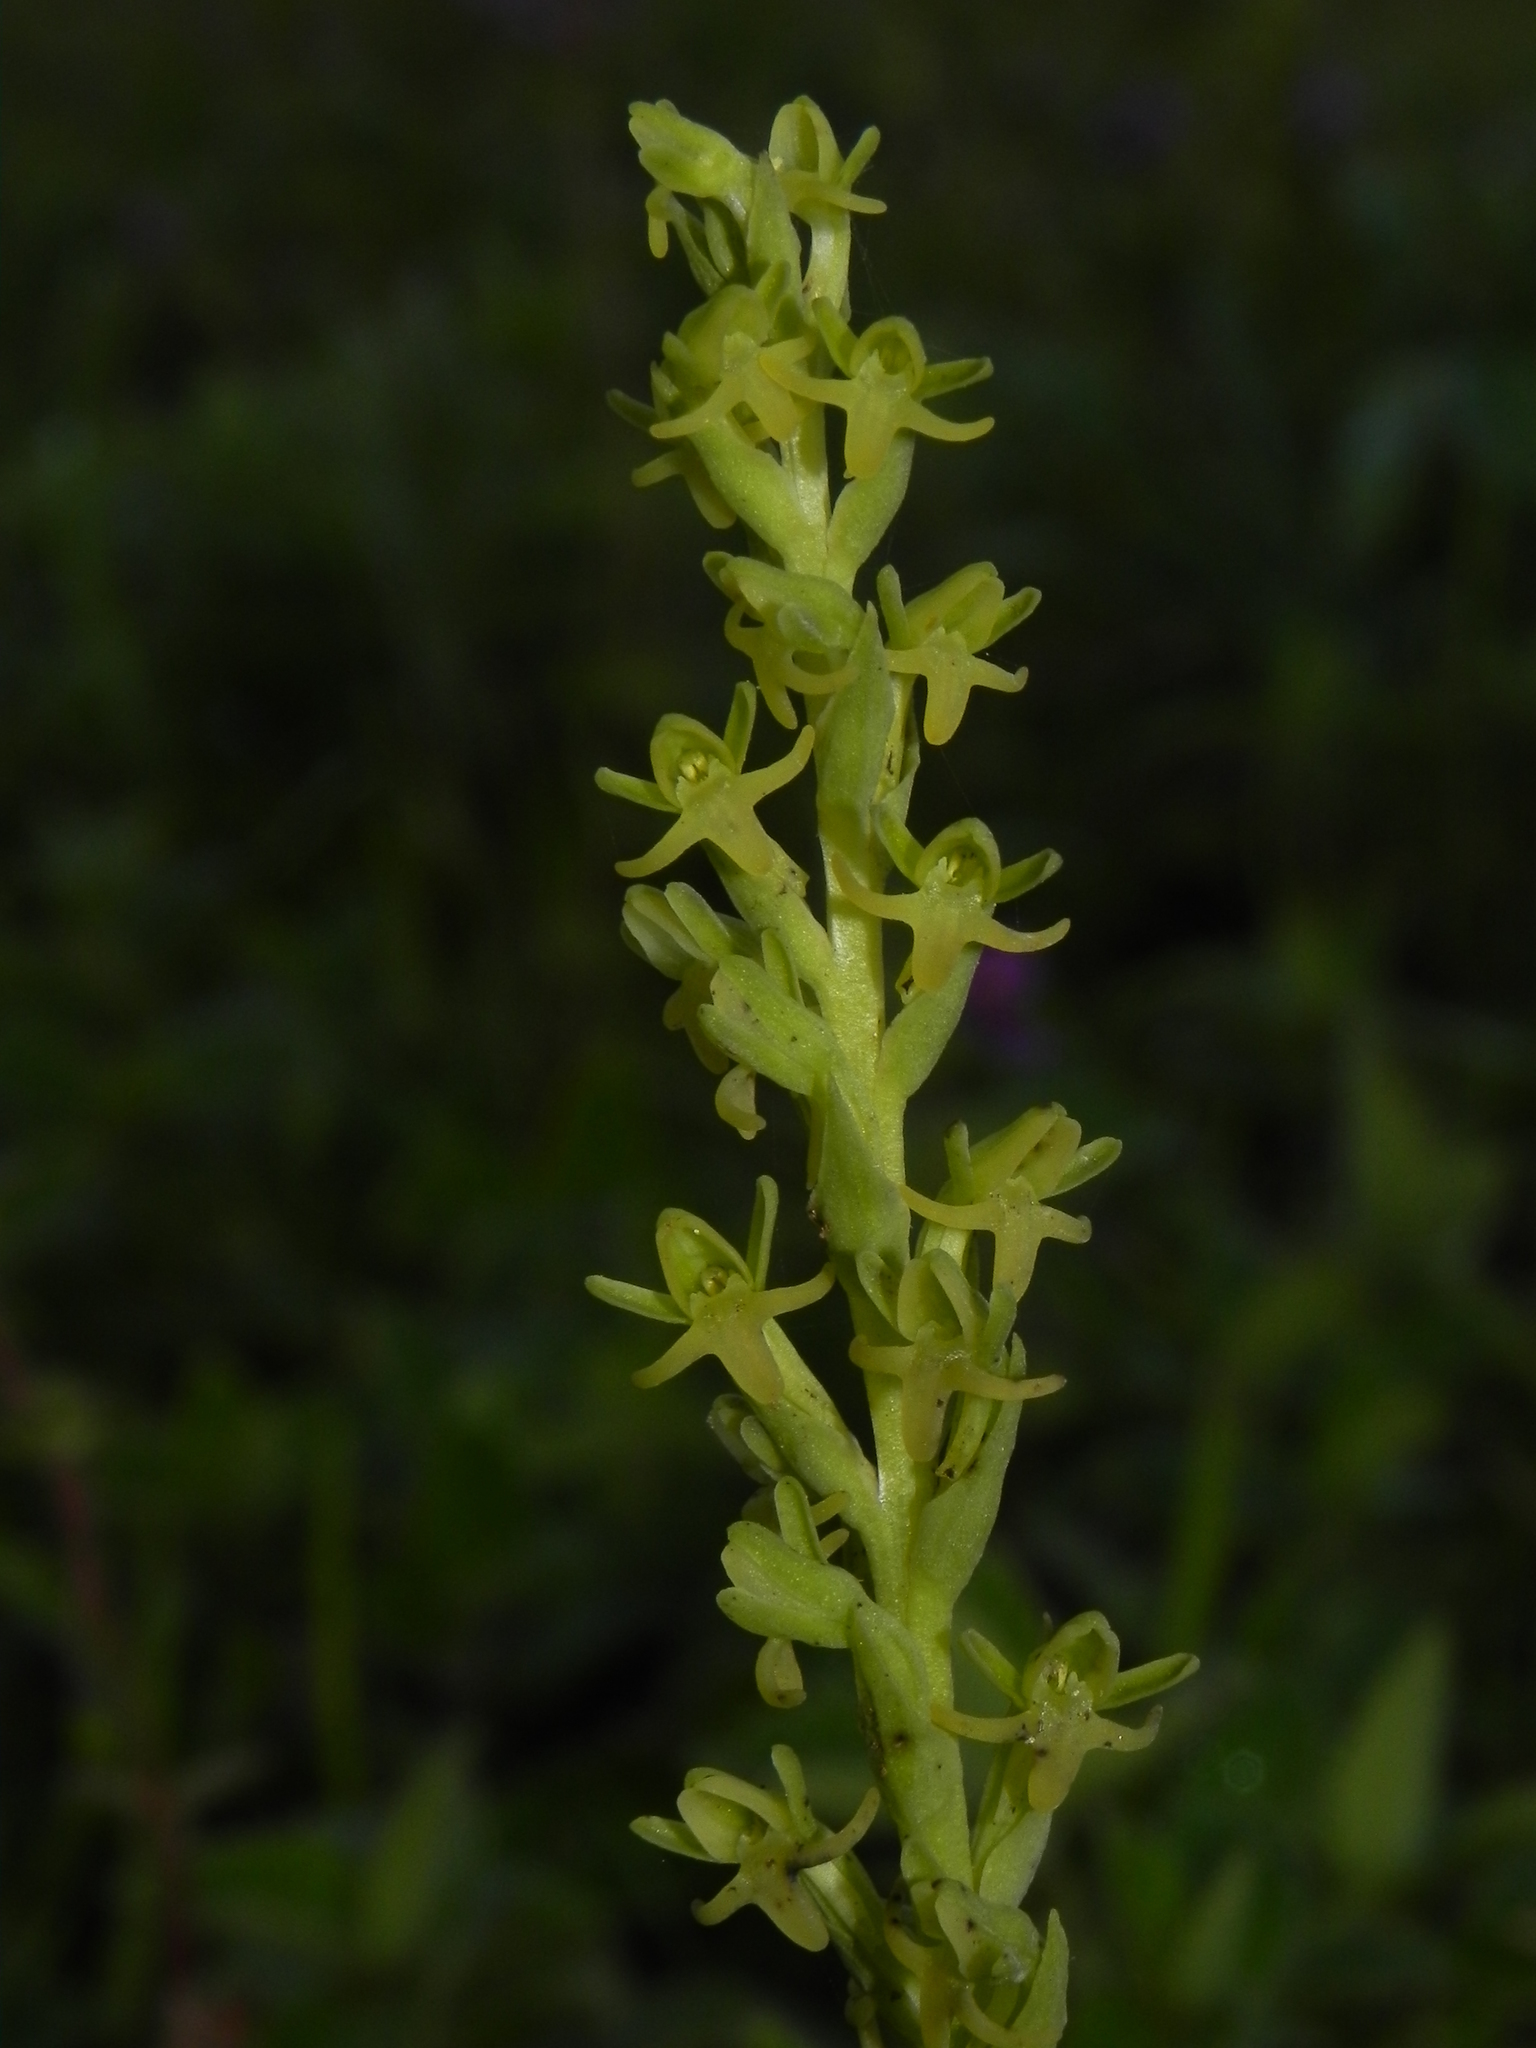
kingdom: Plantae
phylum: Tracheophyta
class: Liliopsida
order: Asparagales
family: Orchidaceae
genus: Peristylus
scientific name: Peristylus densus
